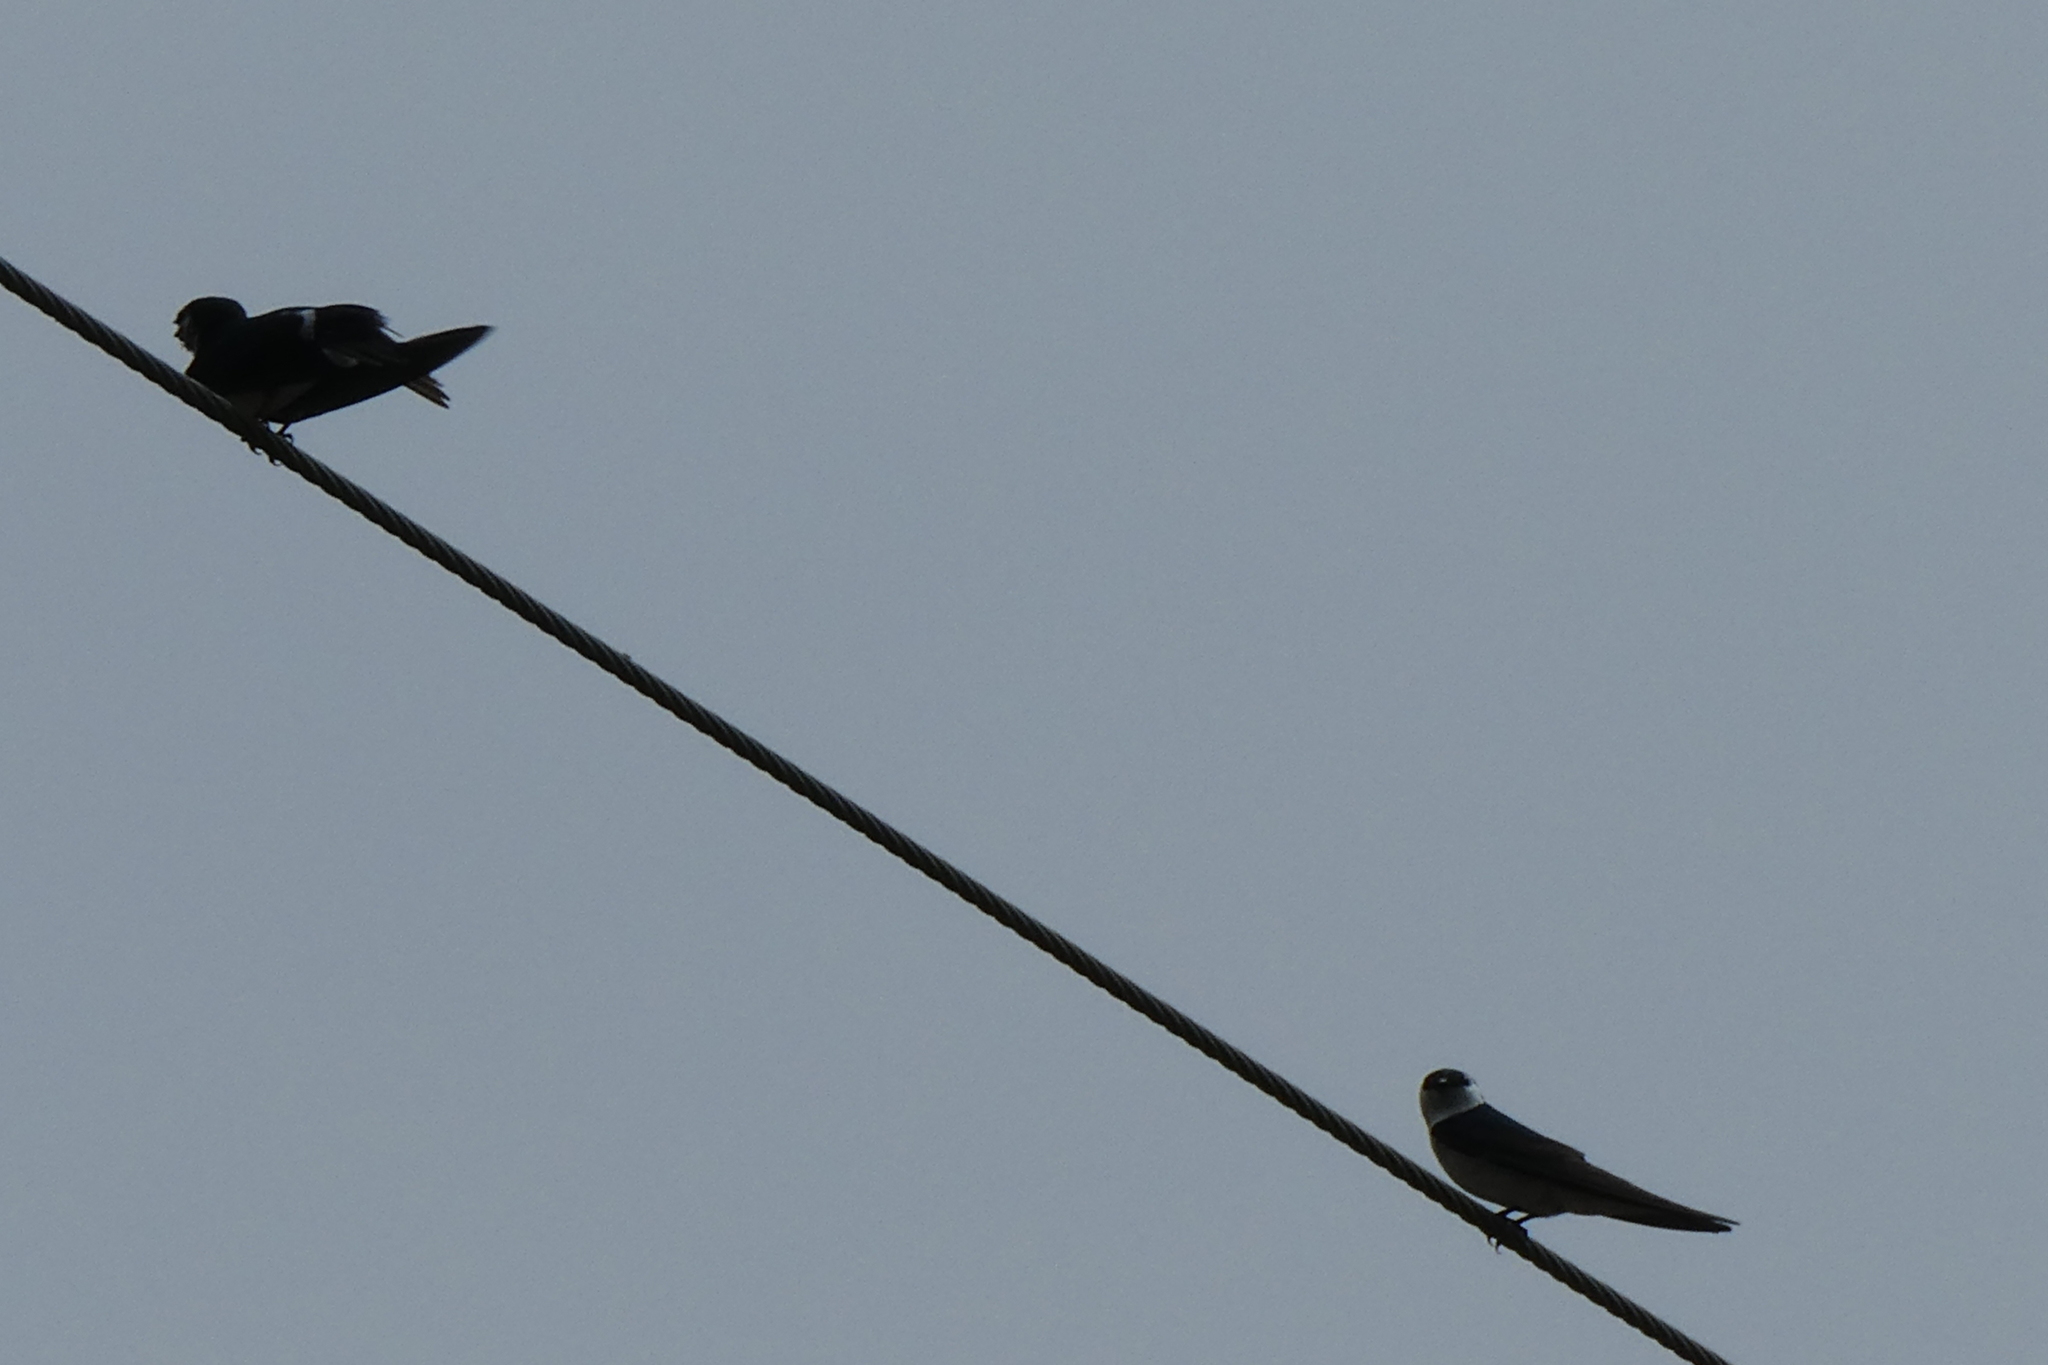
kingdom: Animalia
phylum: Chordata
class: Aves
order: Passeriformes
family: Hirundinidae
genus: Tachycineta
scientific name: Tachycineta thalassina
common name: Violet-green swallow
